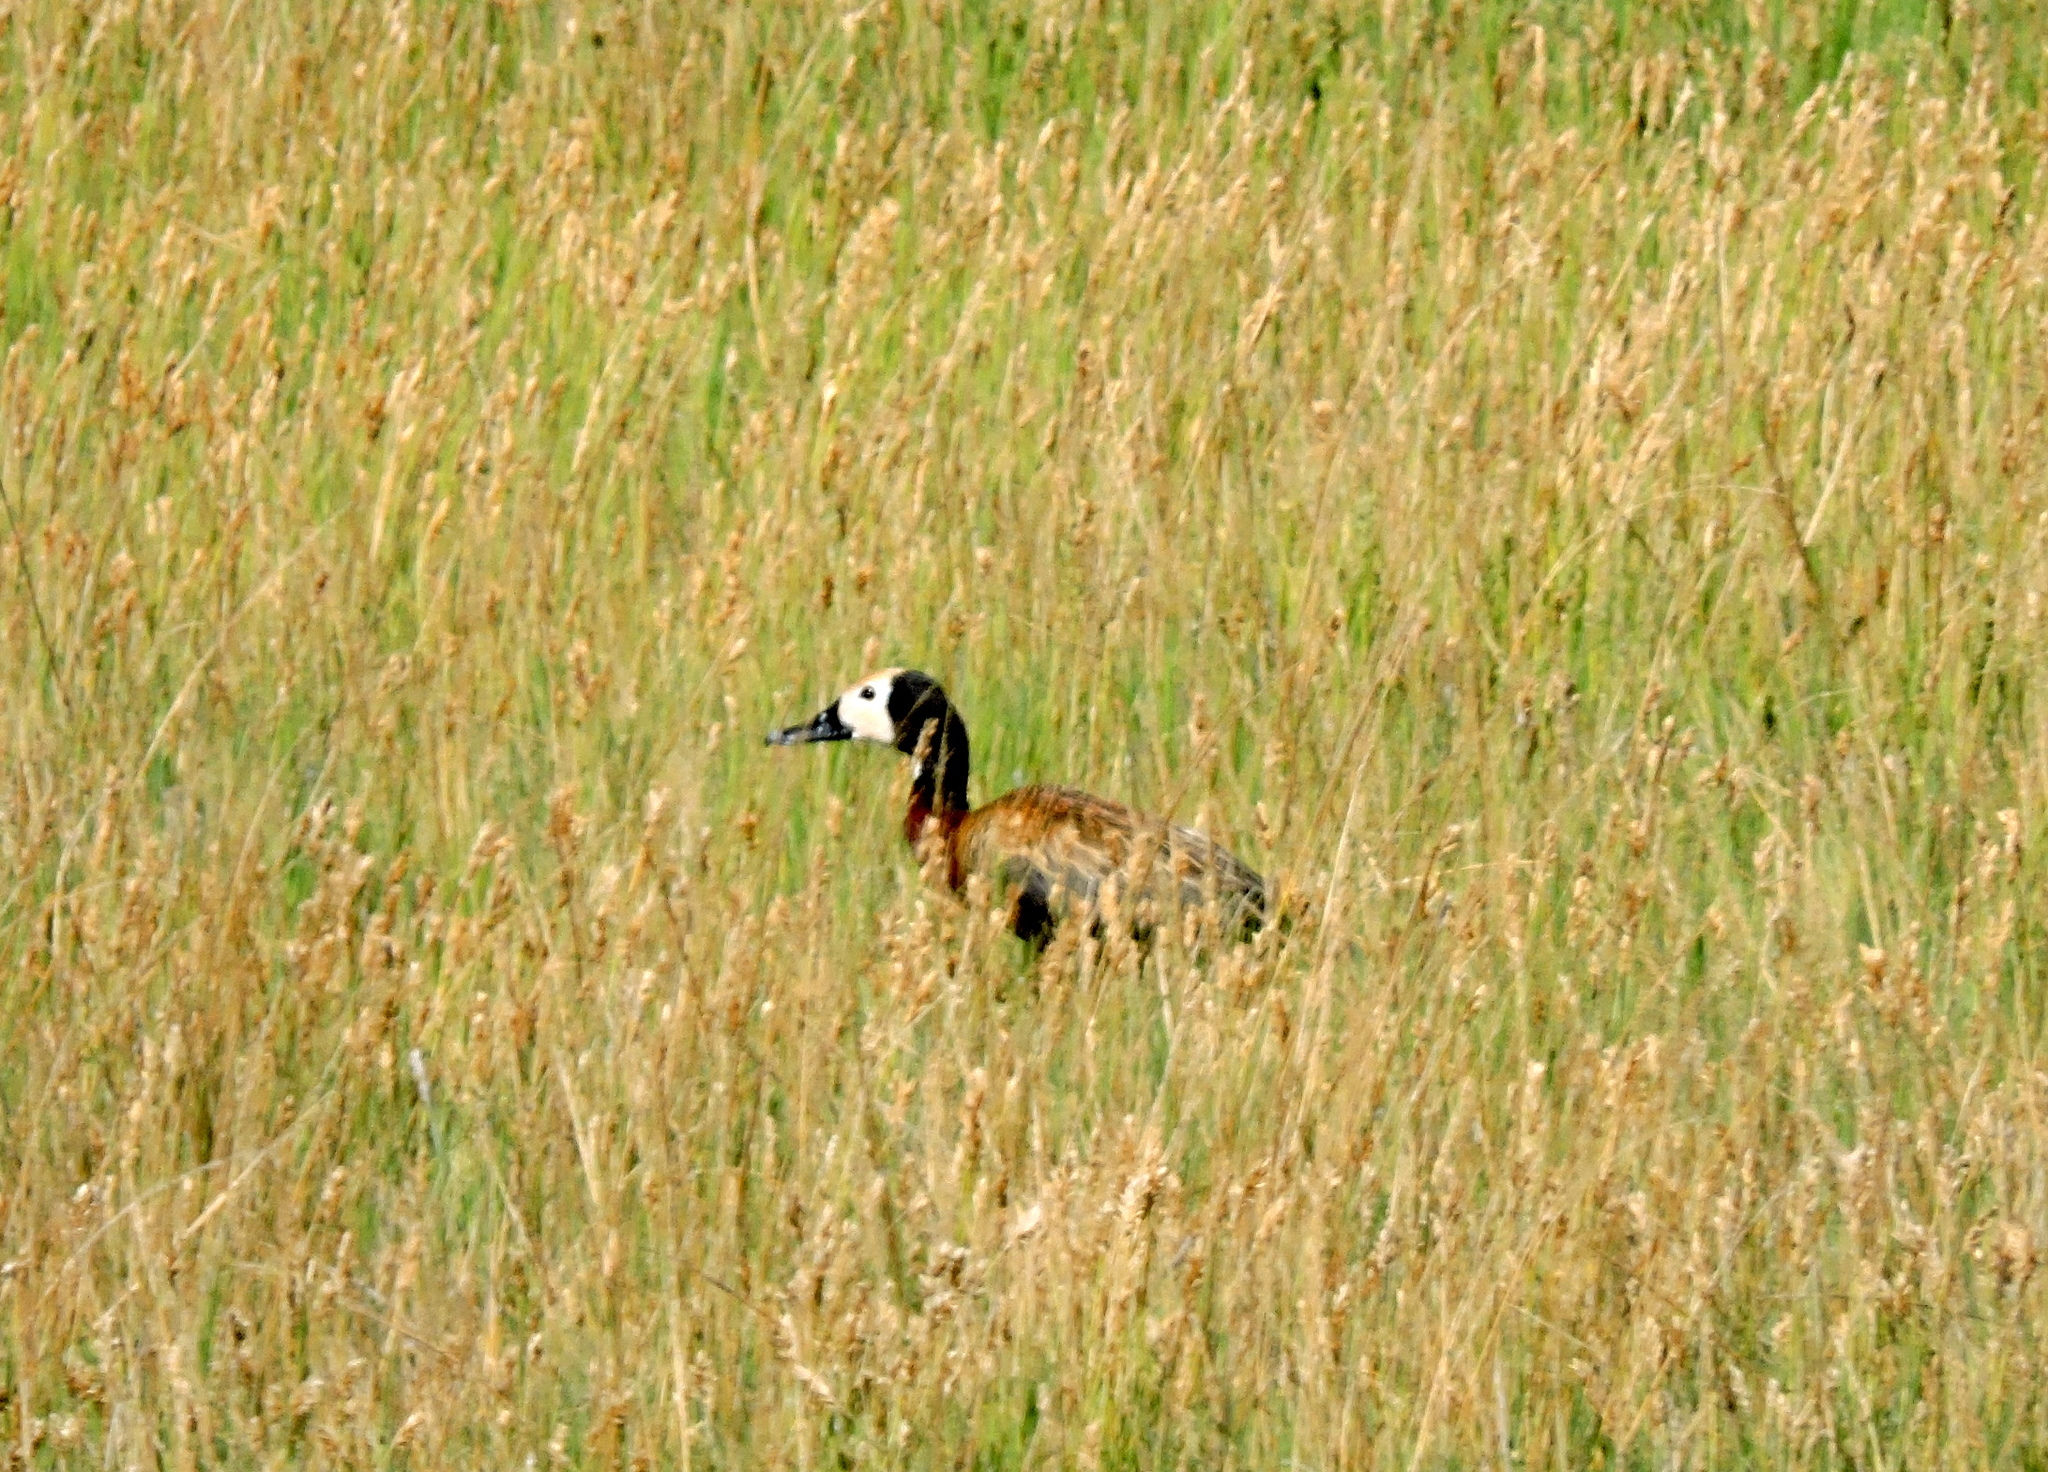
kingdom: Animalia
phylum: Chordata
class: Aves
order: Anseriformes
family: Anatidae
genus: Dendrocygna
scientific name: Dendrocygna viduata
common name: White-faced whistling duck
